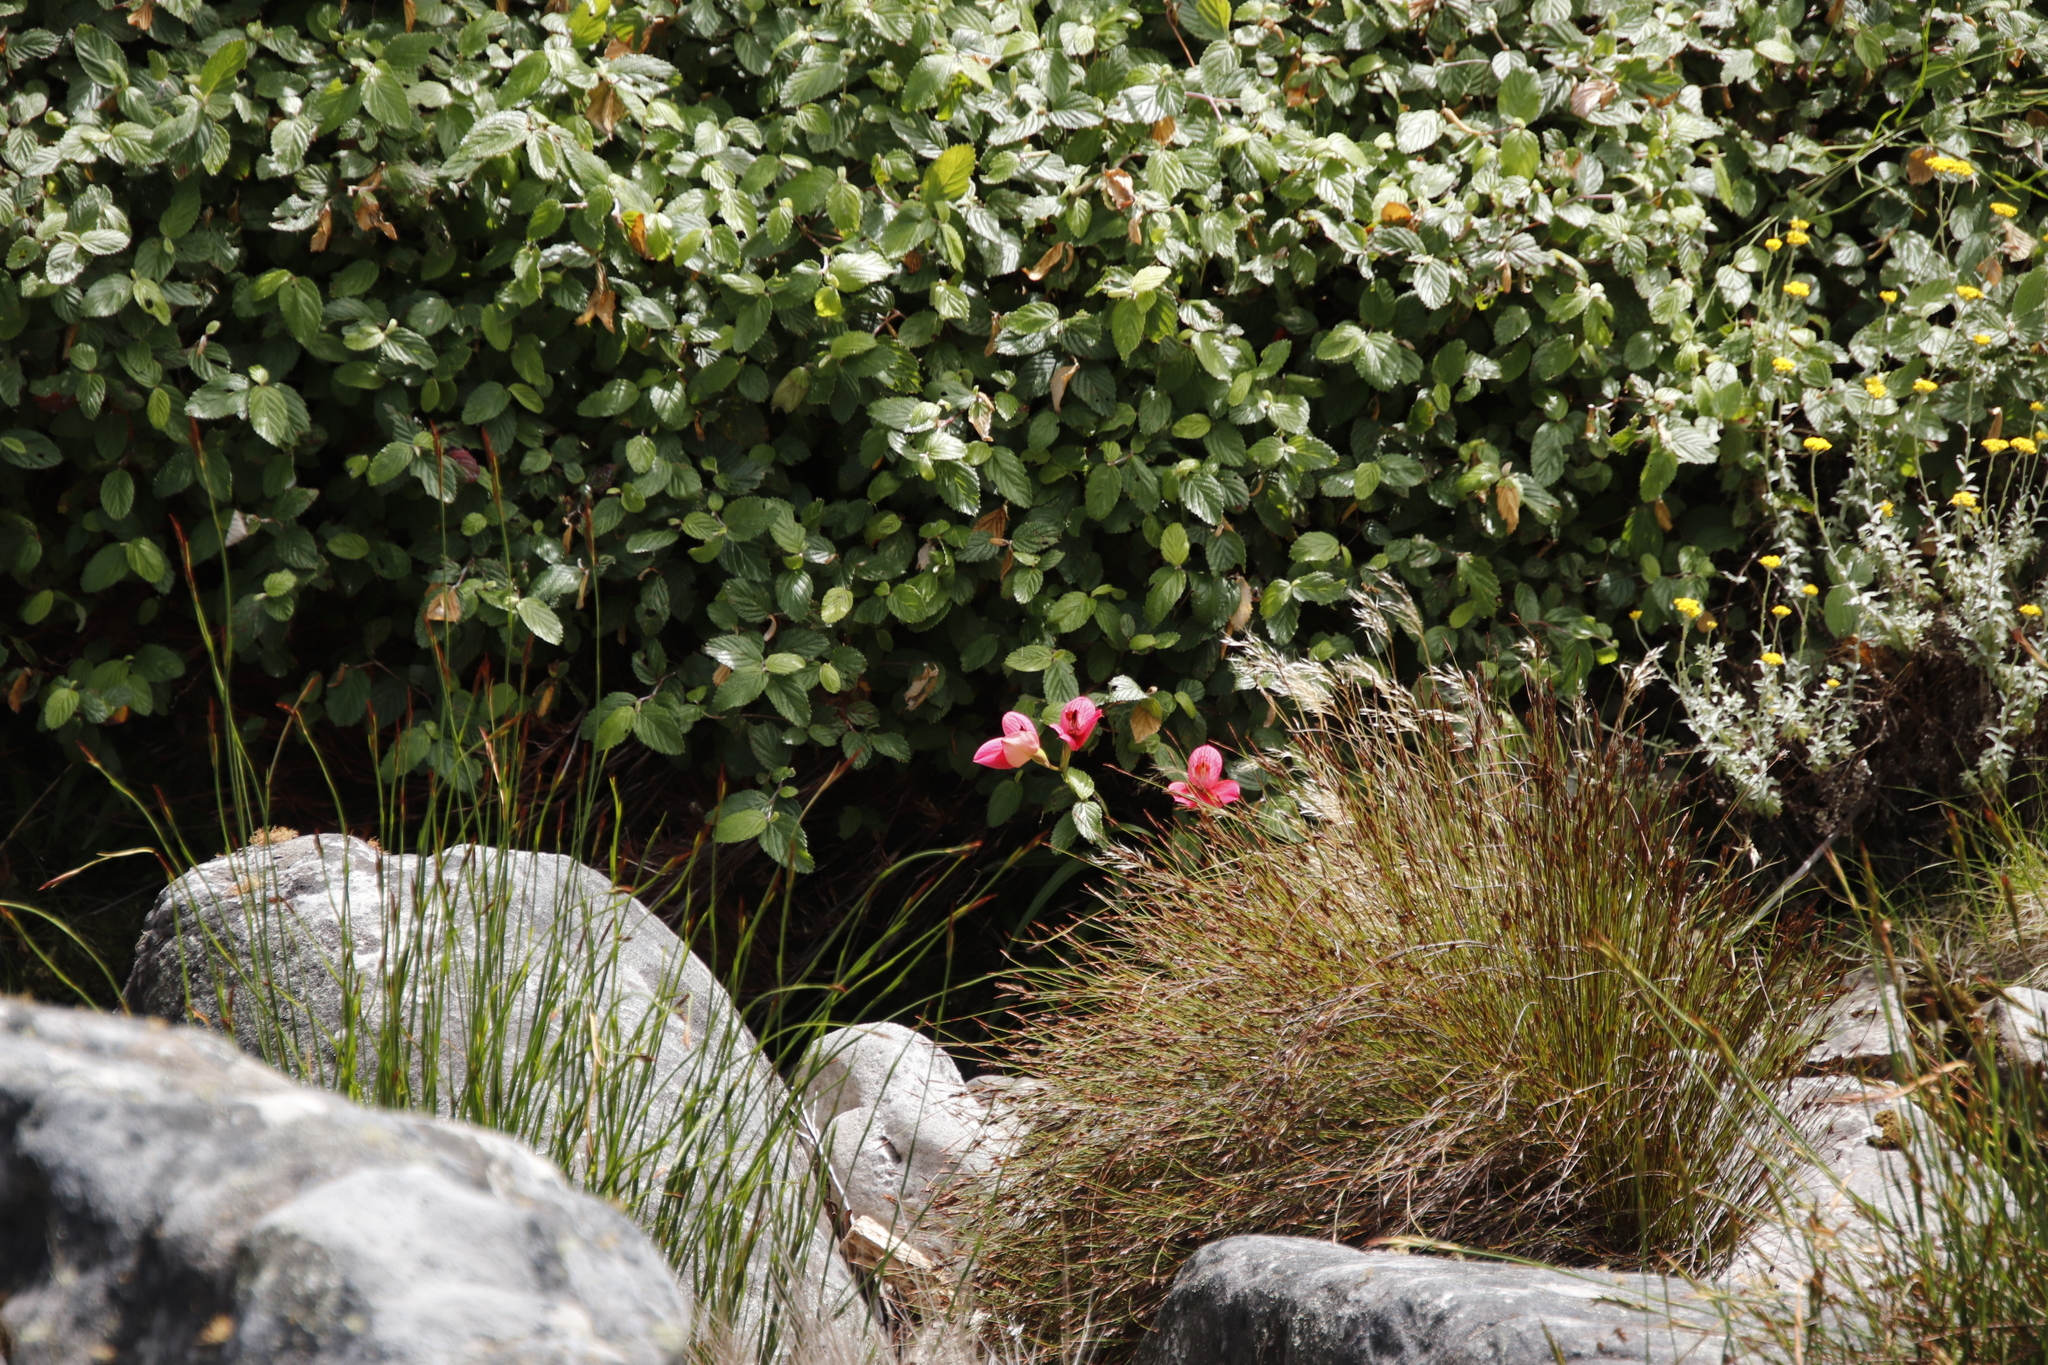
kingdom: Plantae
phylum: Tracheophyta
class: Liliopsida
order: Asparagales
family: Orchidaceae
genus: Disa
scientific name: Disa uniflora
